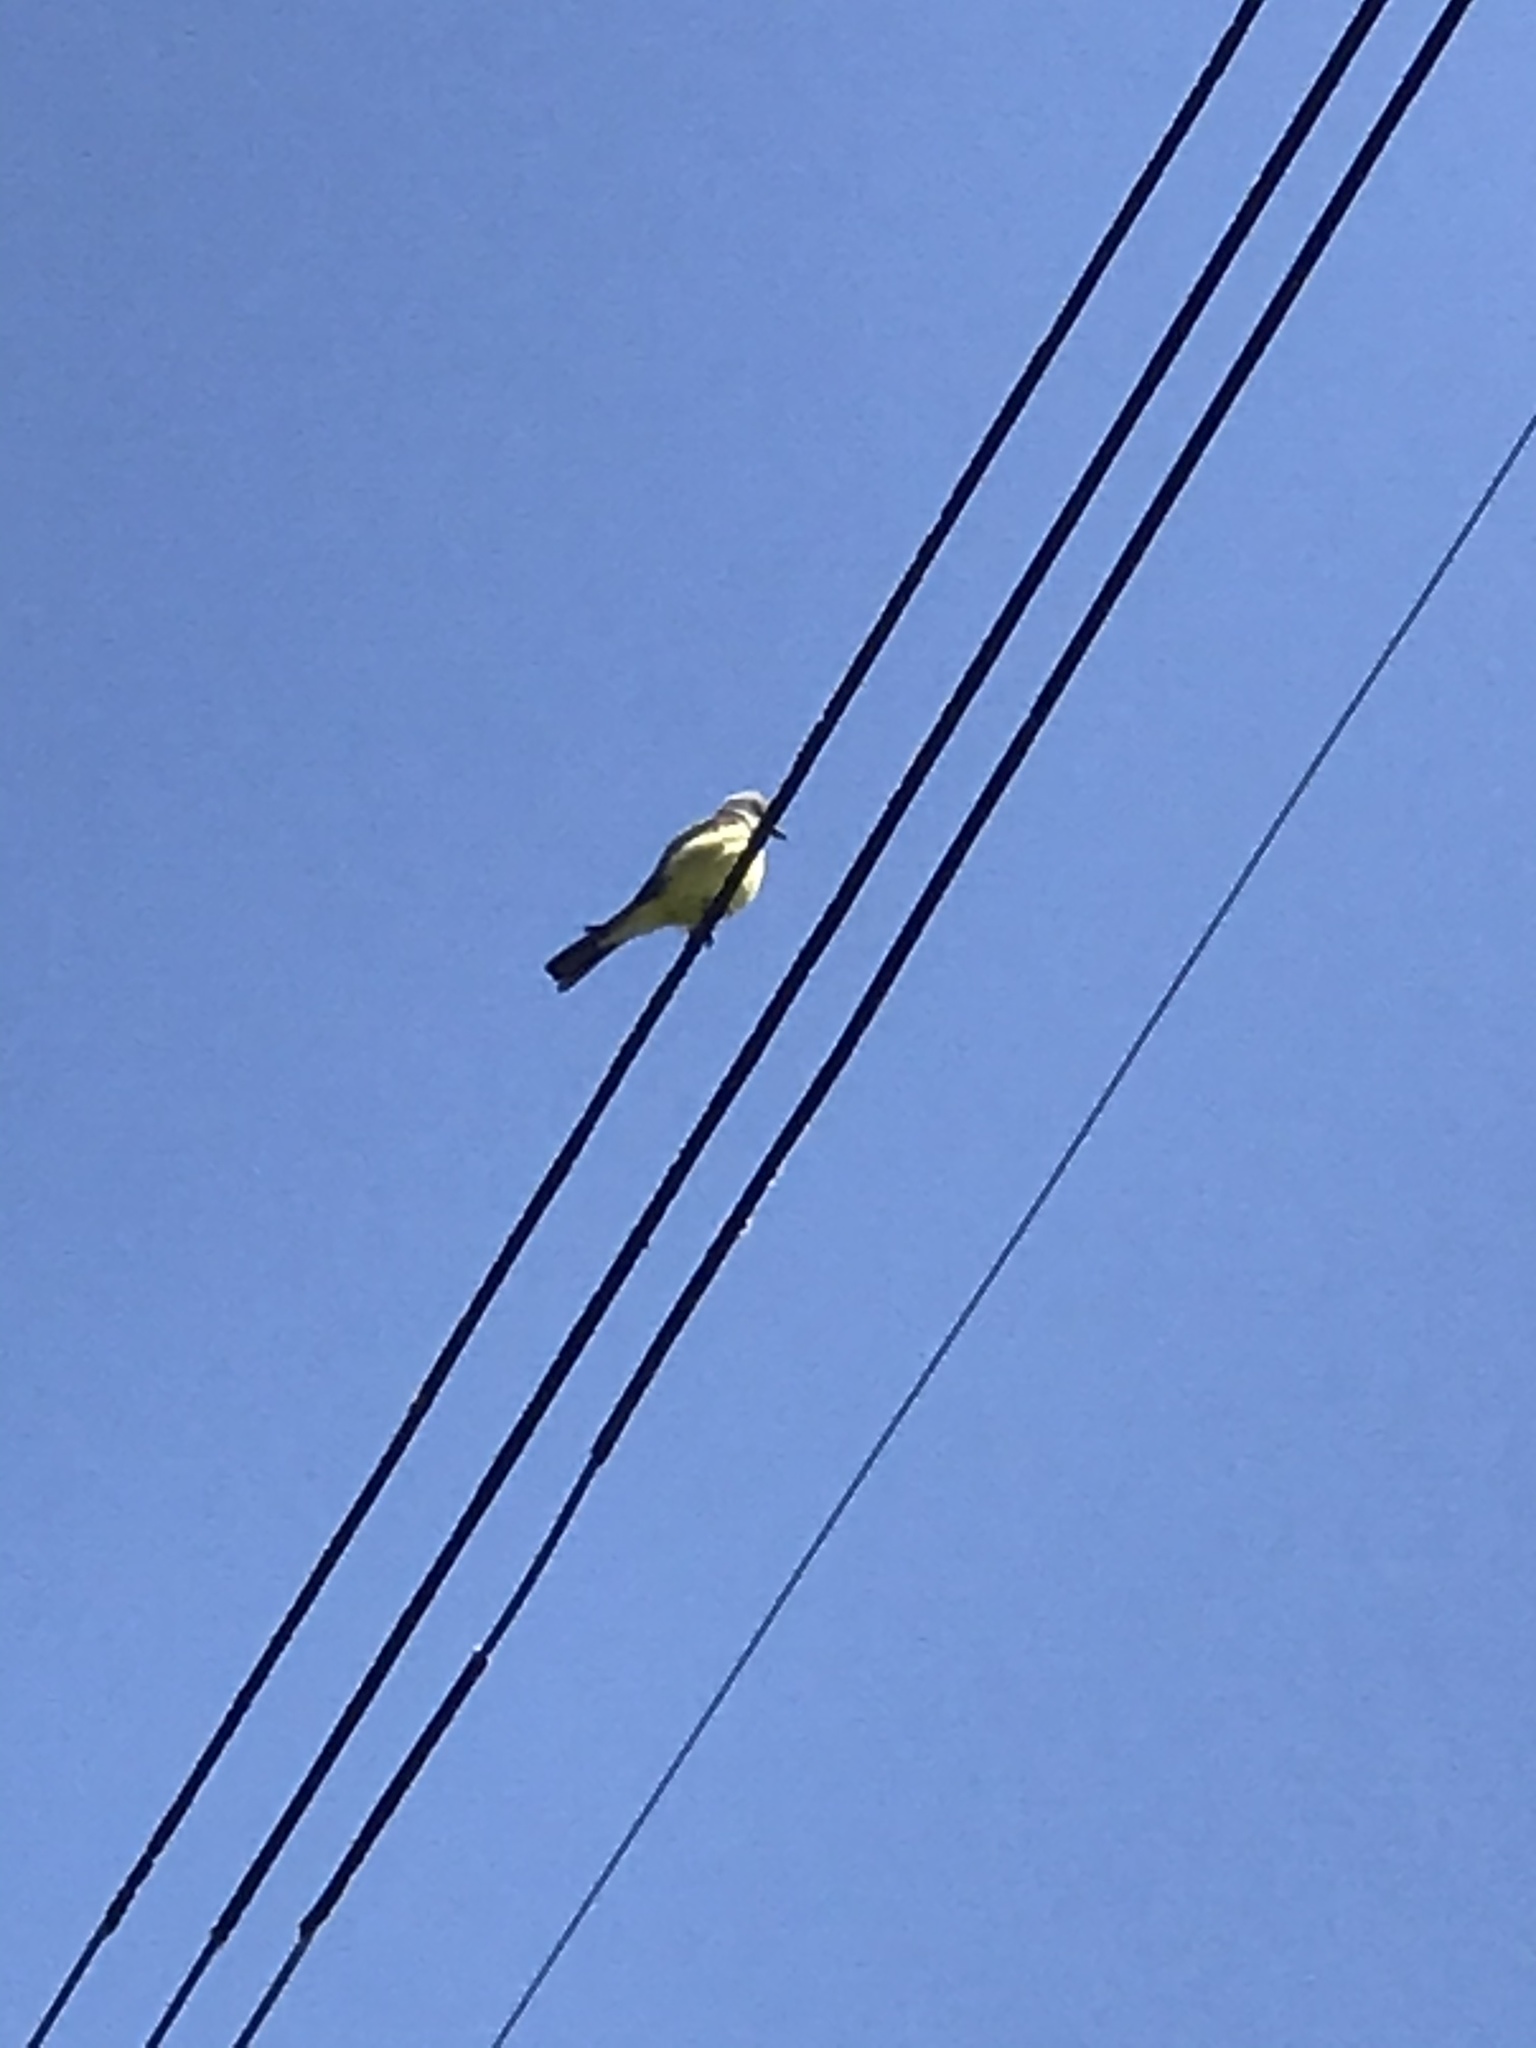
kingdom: Animalia
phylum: Chordata
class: Aves
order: Passeriformes
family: Tyrannidae
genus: Tyrannus
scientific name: Tyrannus
